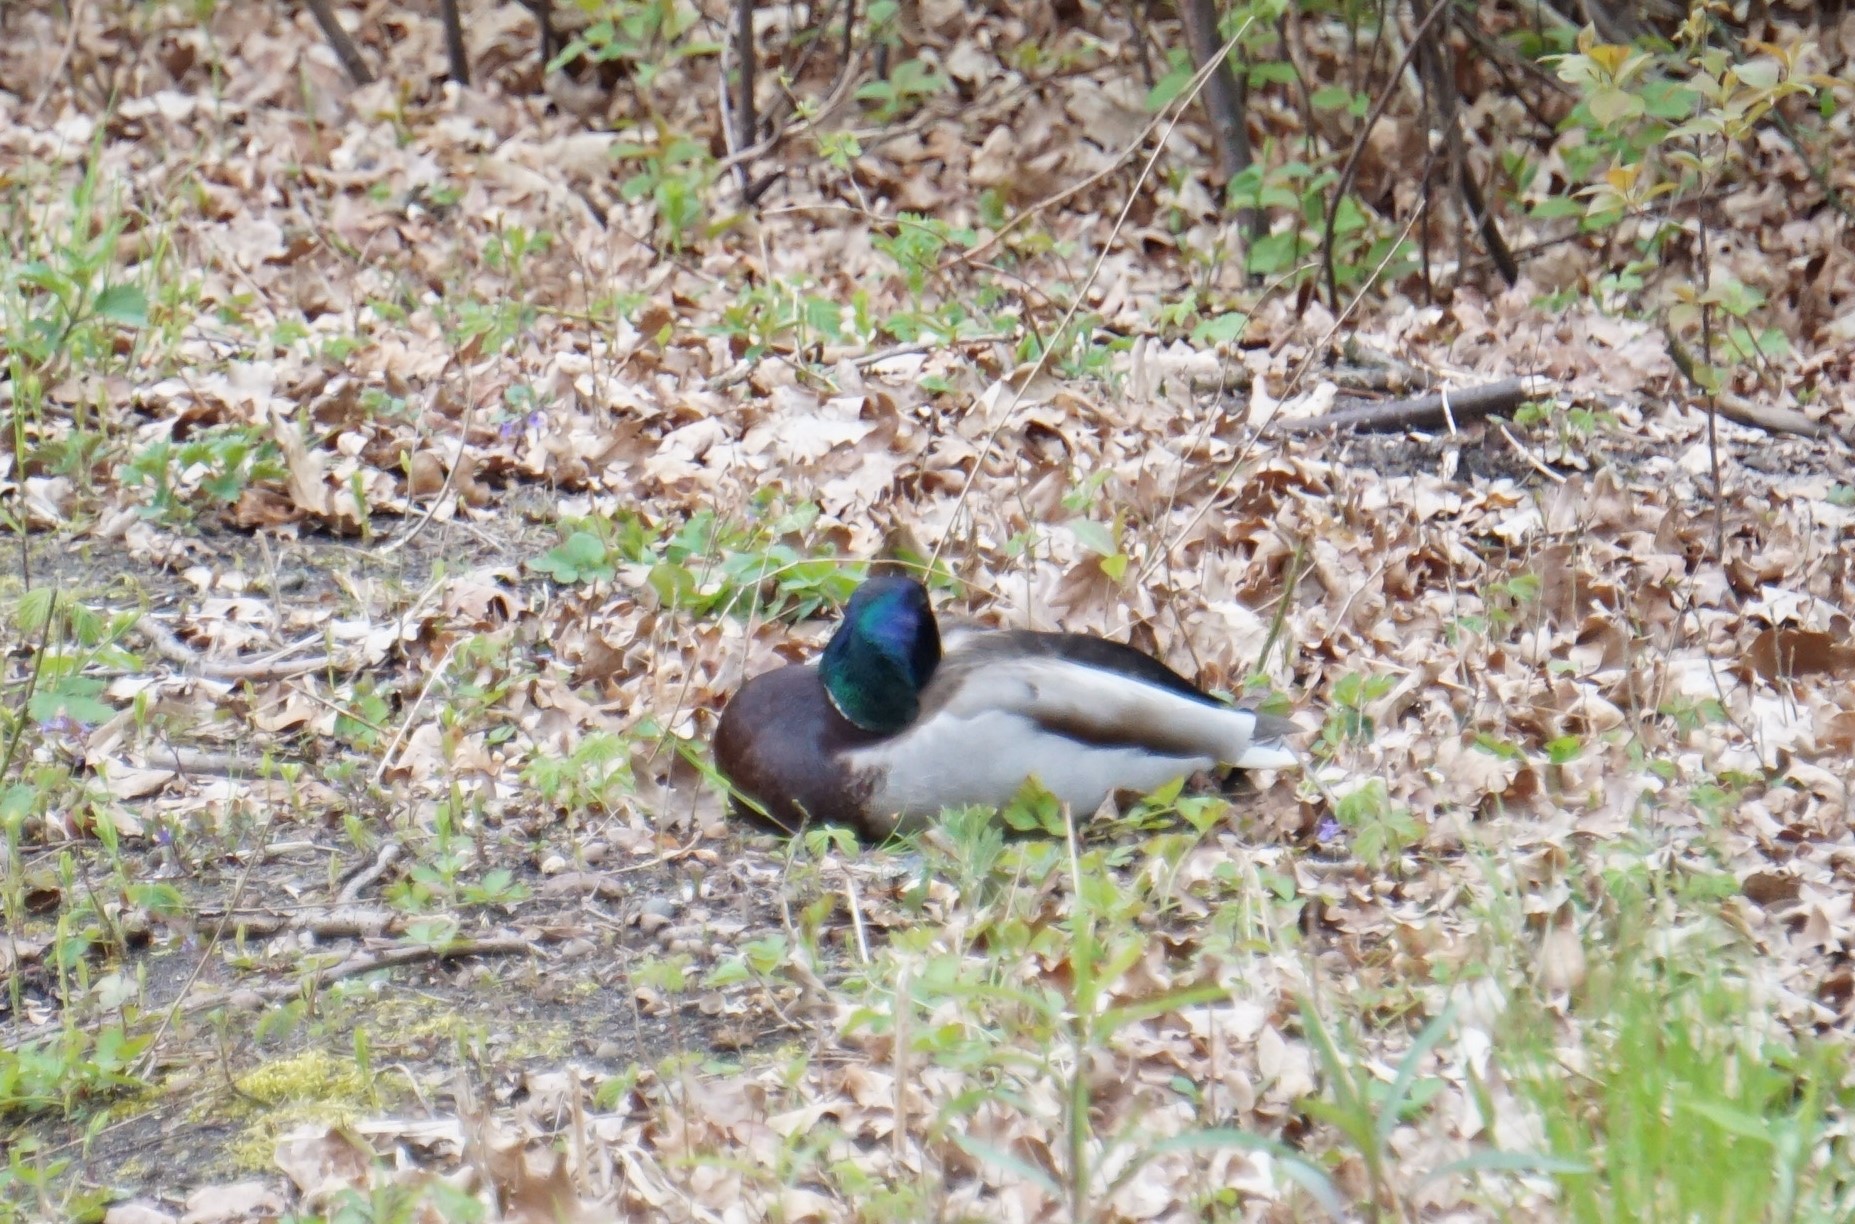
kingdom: Animalia
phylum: Chordata
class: Aves
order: Anseriformes
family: Anatidae
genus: Anas
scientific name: Anas platyrhynchos
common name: Mallard
